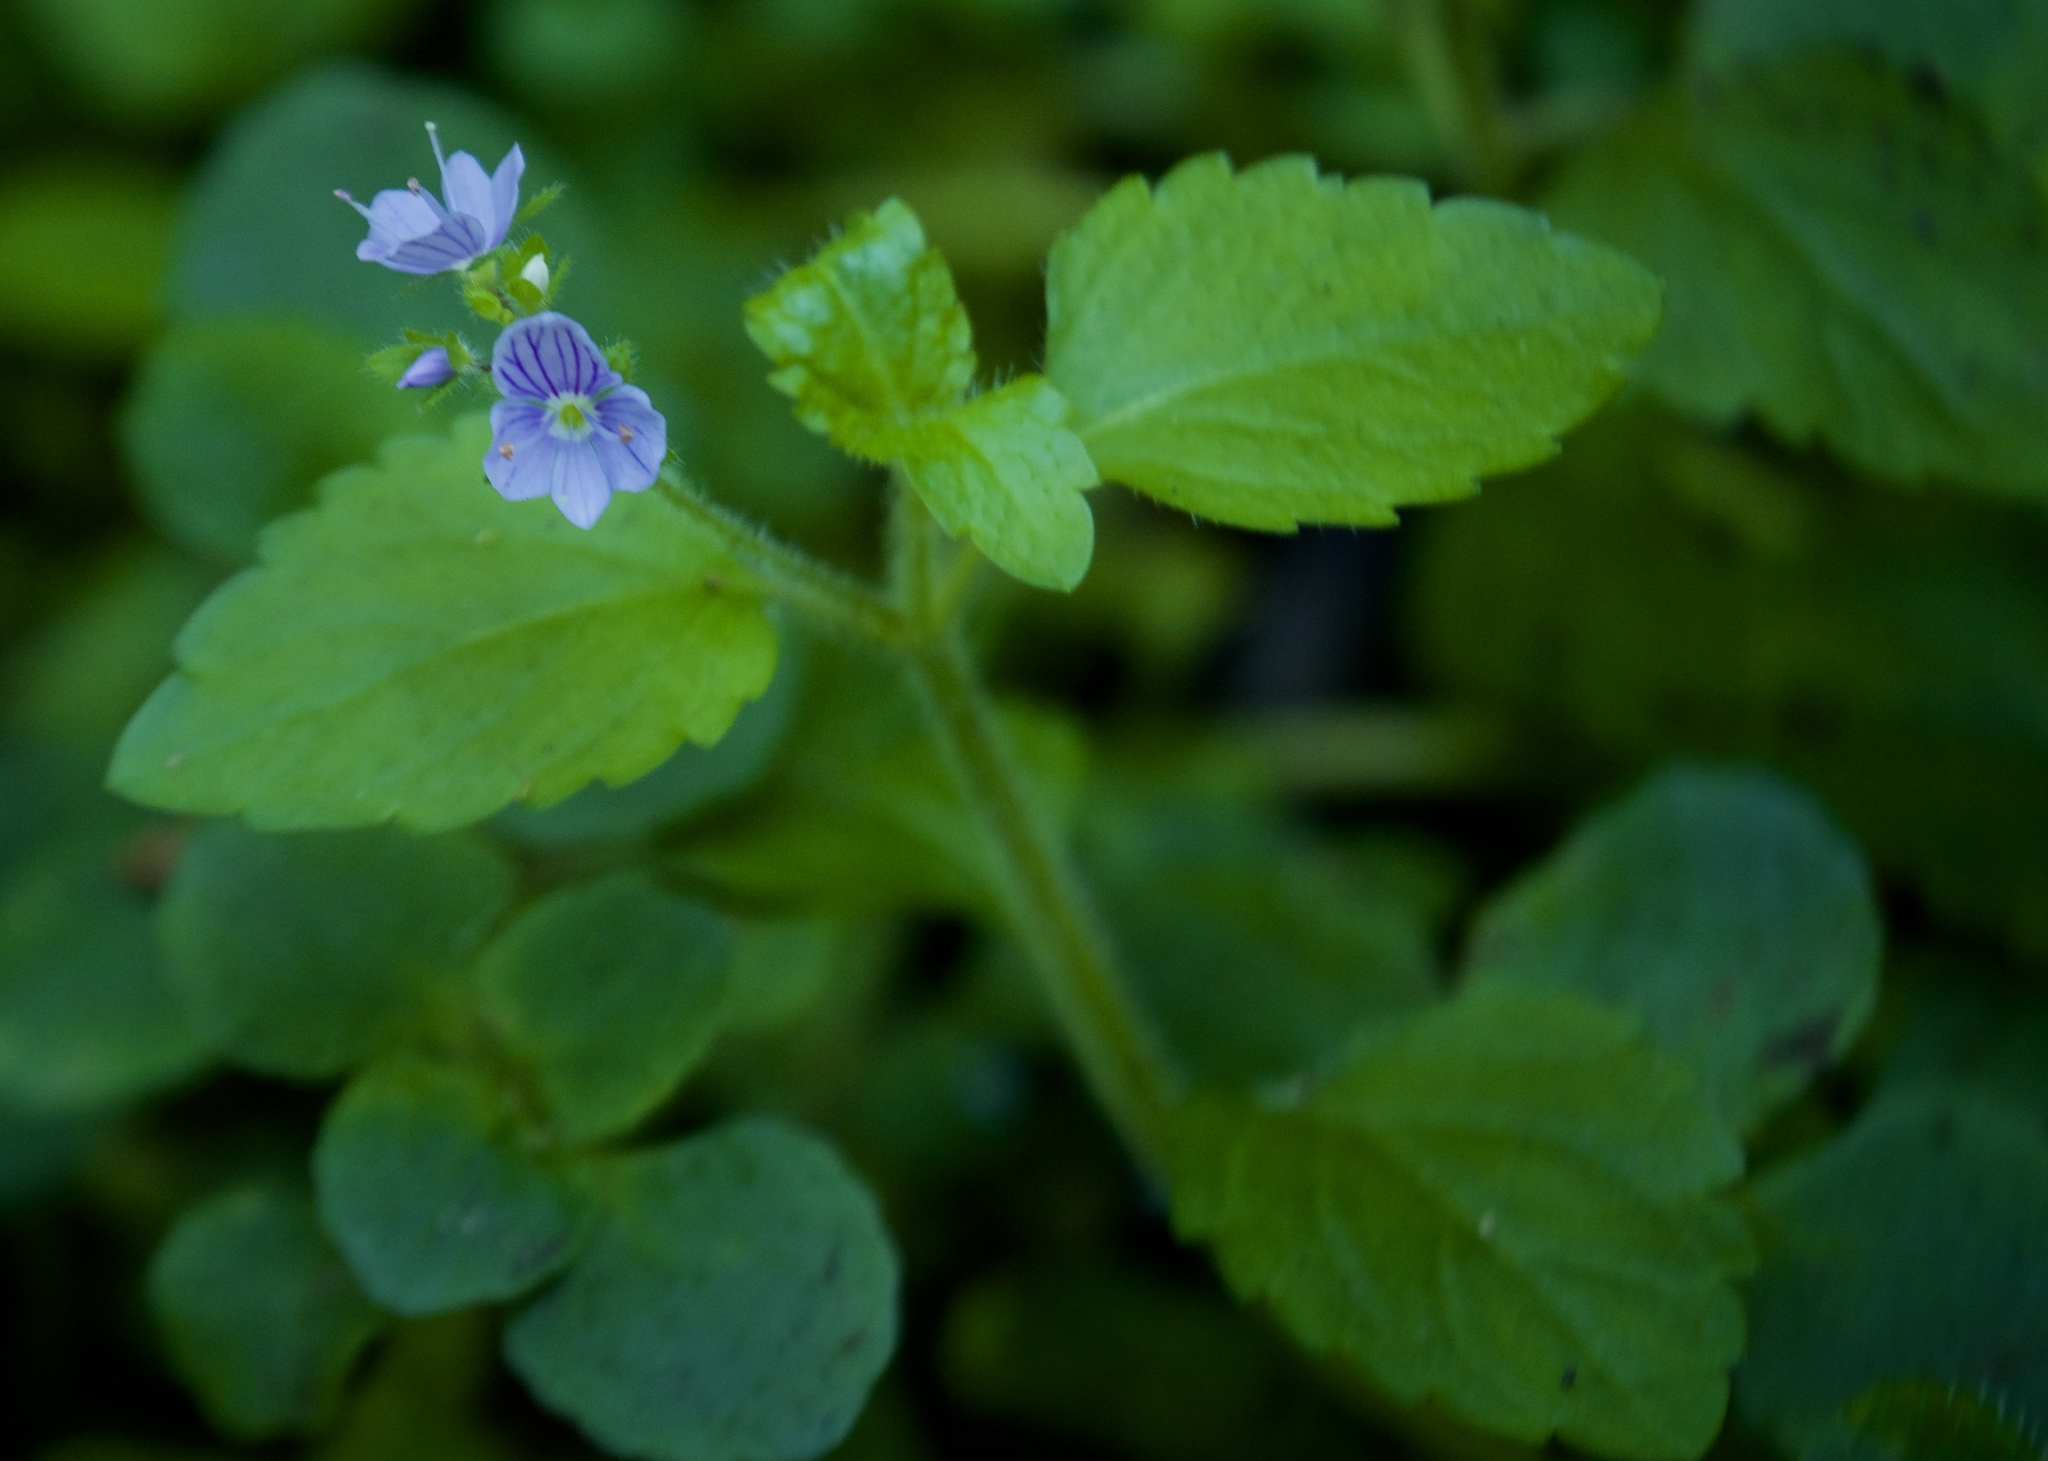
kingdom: Plantae
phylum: Tracheophyta
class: Magnoliopsida
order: Lamiales
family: Plantaginaceae
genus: Veronica
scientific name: Veronica montana
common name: Wood speedwell
